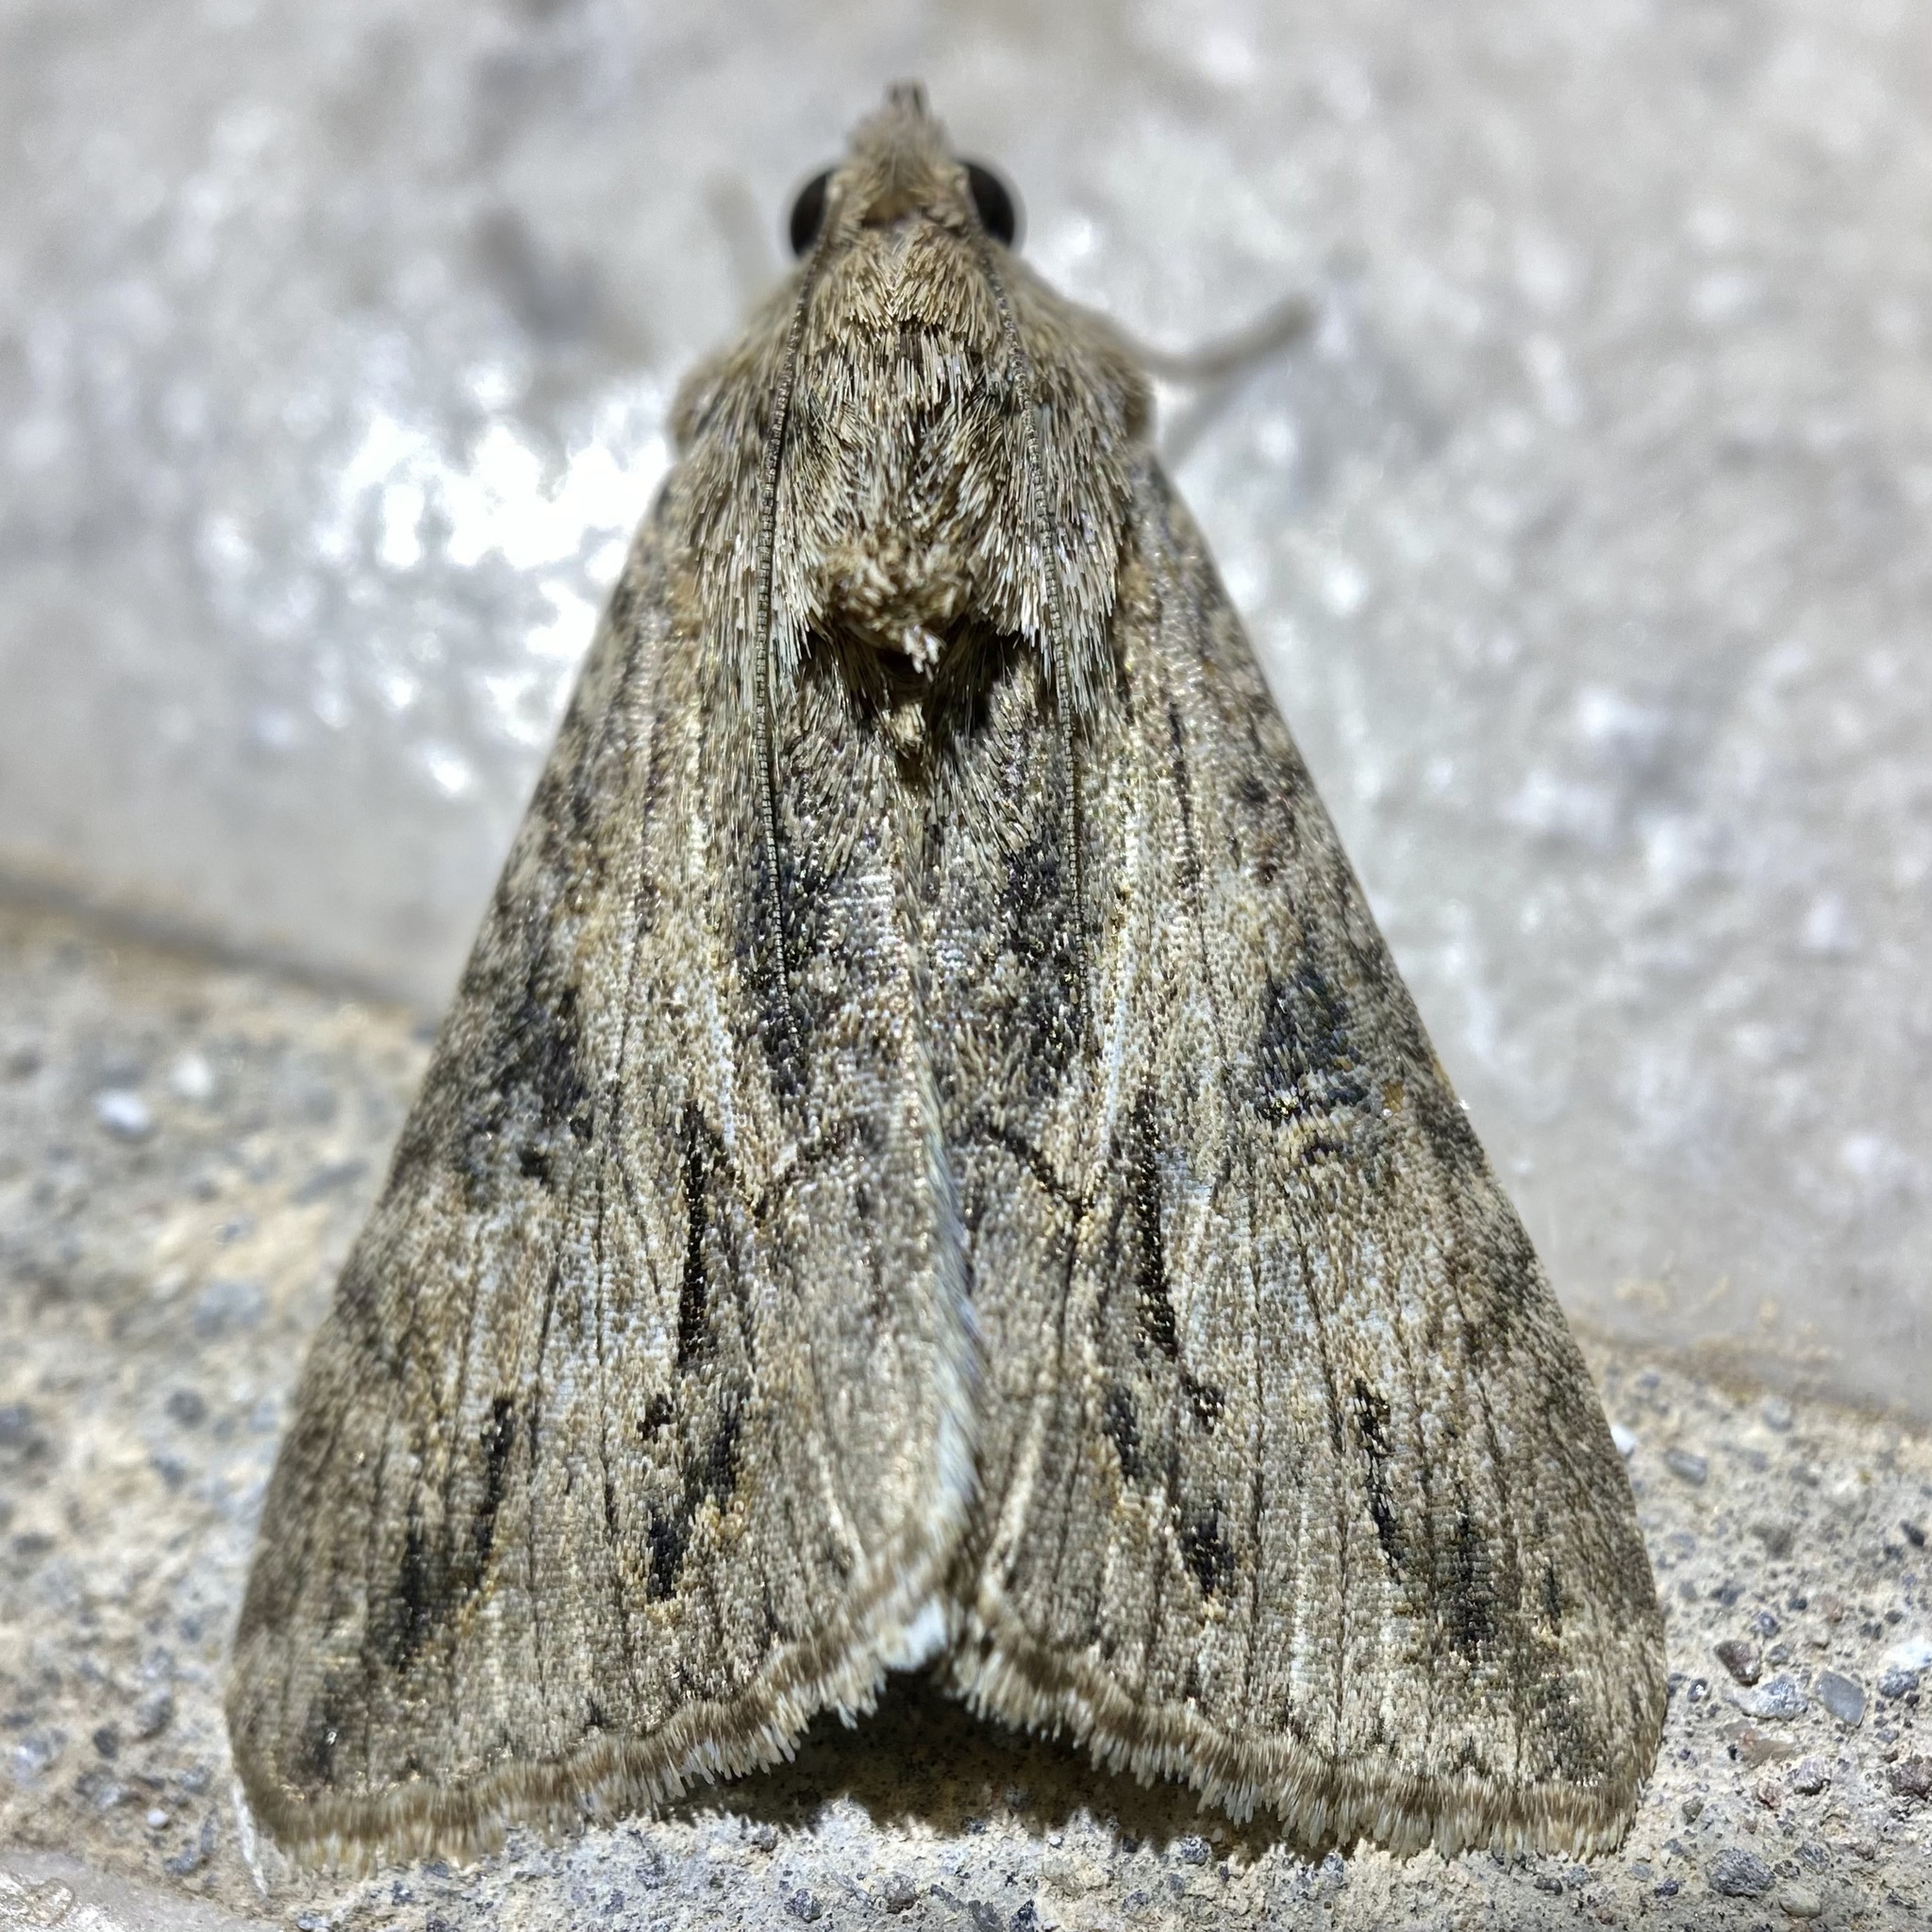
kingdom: Animalia
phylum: Arthropoda
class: Insecta
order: Lepidoptera
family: Erebidae
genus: Melipotis
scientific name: Melipotis jucunda
